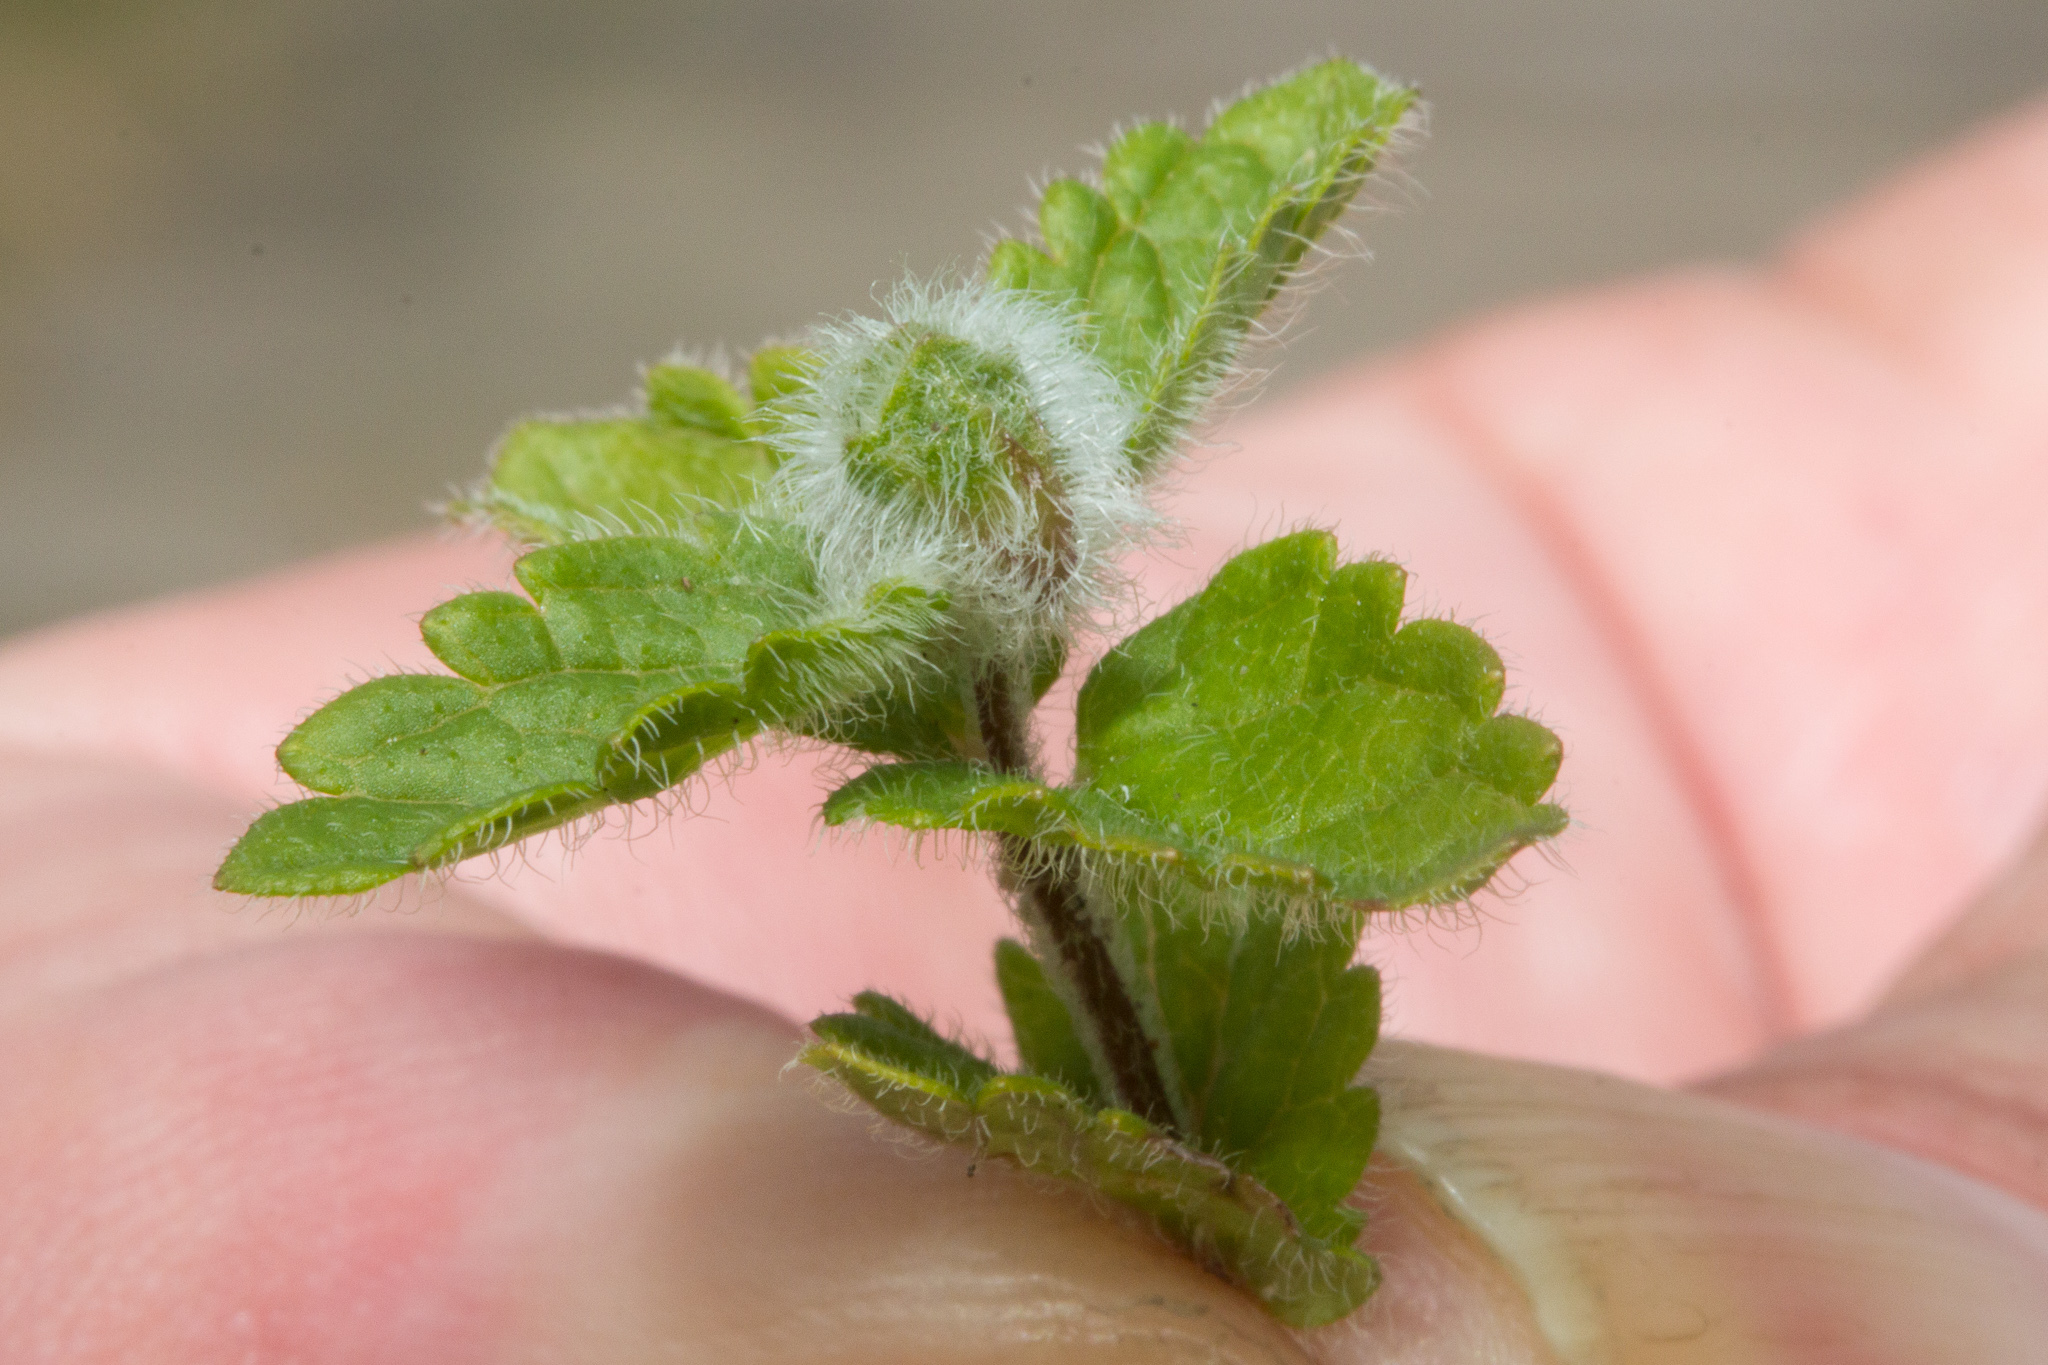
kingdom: Animalia
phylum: Arthropoda
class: Insecta
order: Diptera
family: Cecidomyiidae
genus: Jaapiella
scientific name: Jaapiella veronicae
